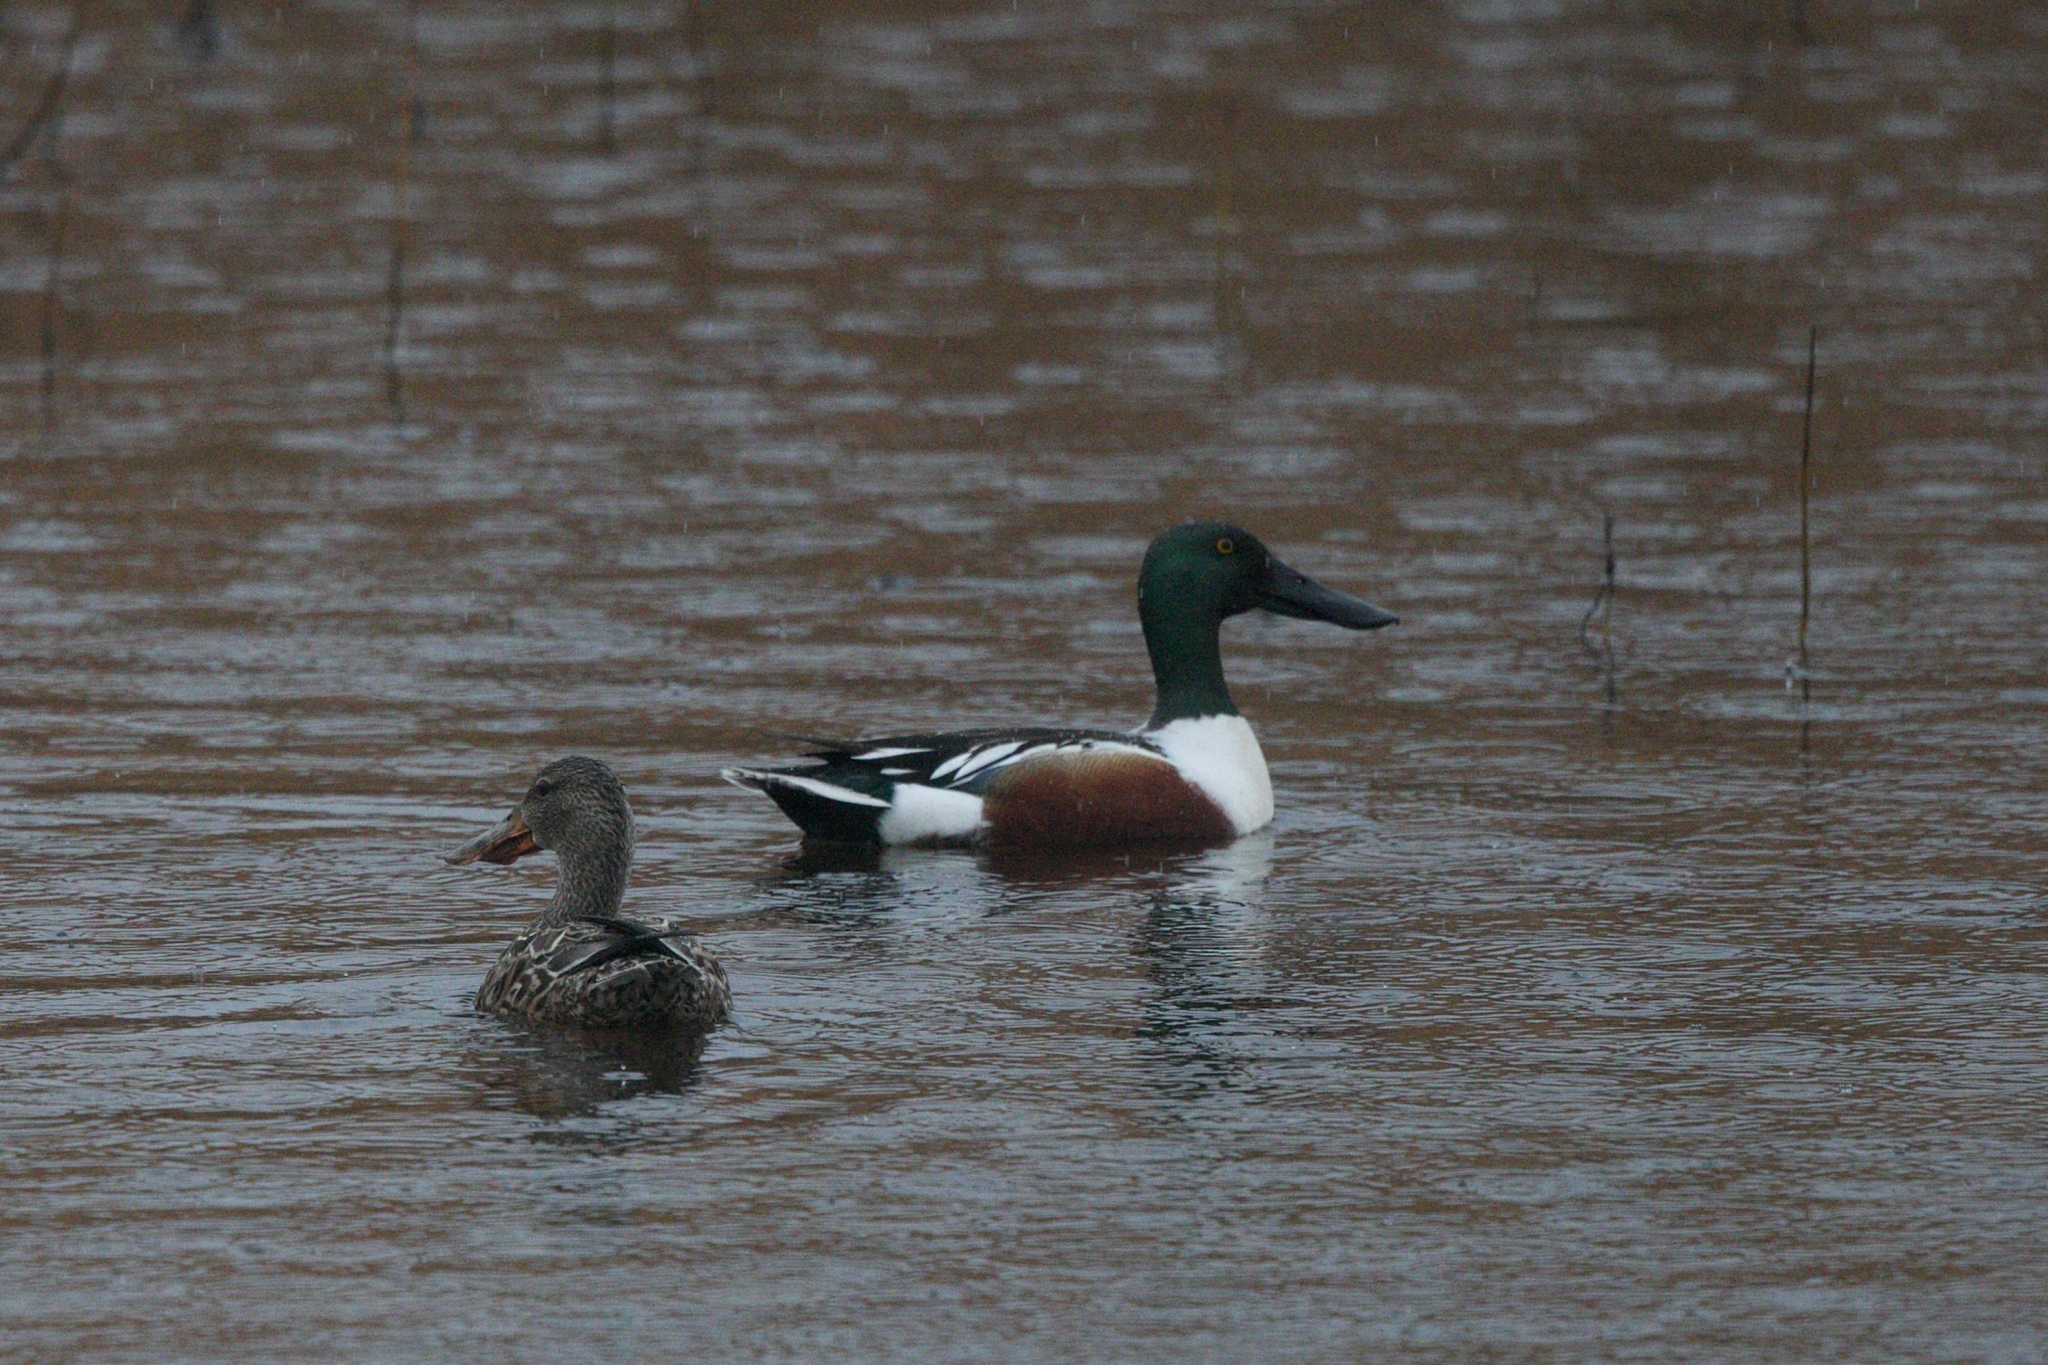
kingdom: Animalia
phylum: Chordata
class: Aves
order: Anseriformes
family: Anatidae
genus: Spatula
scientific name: Spatula clypeata
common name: Northern shoveler
